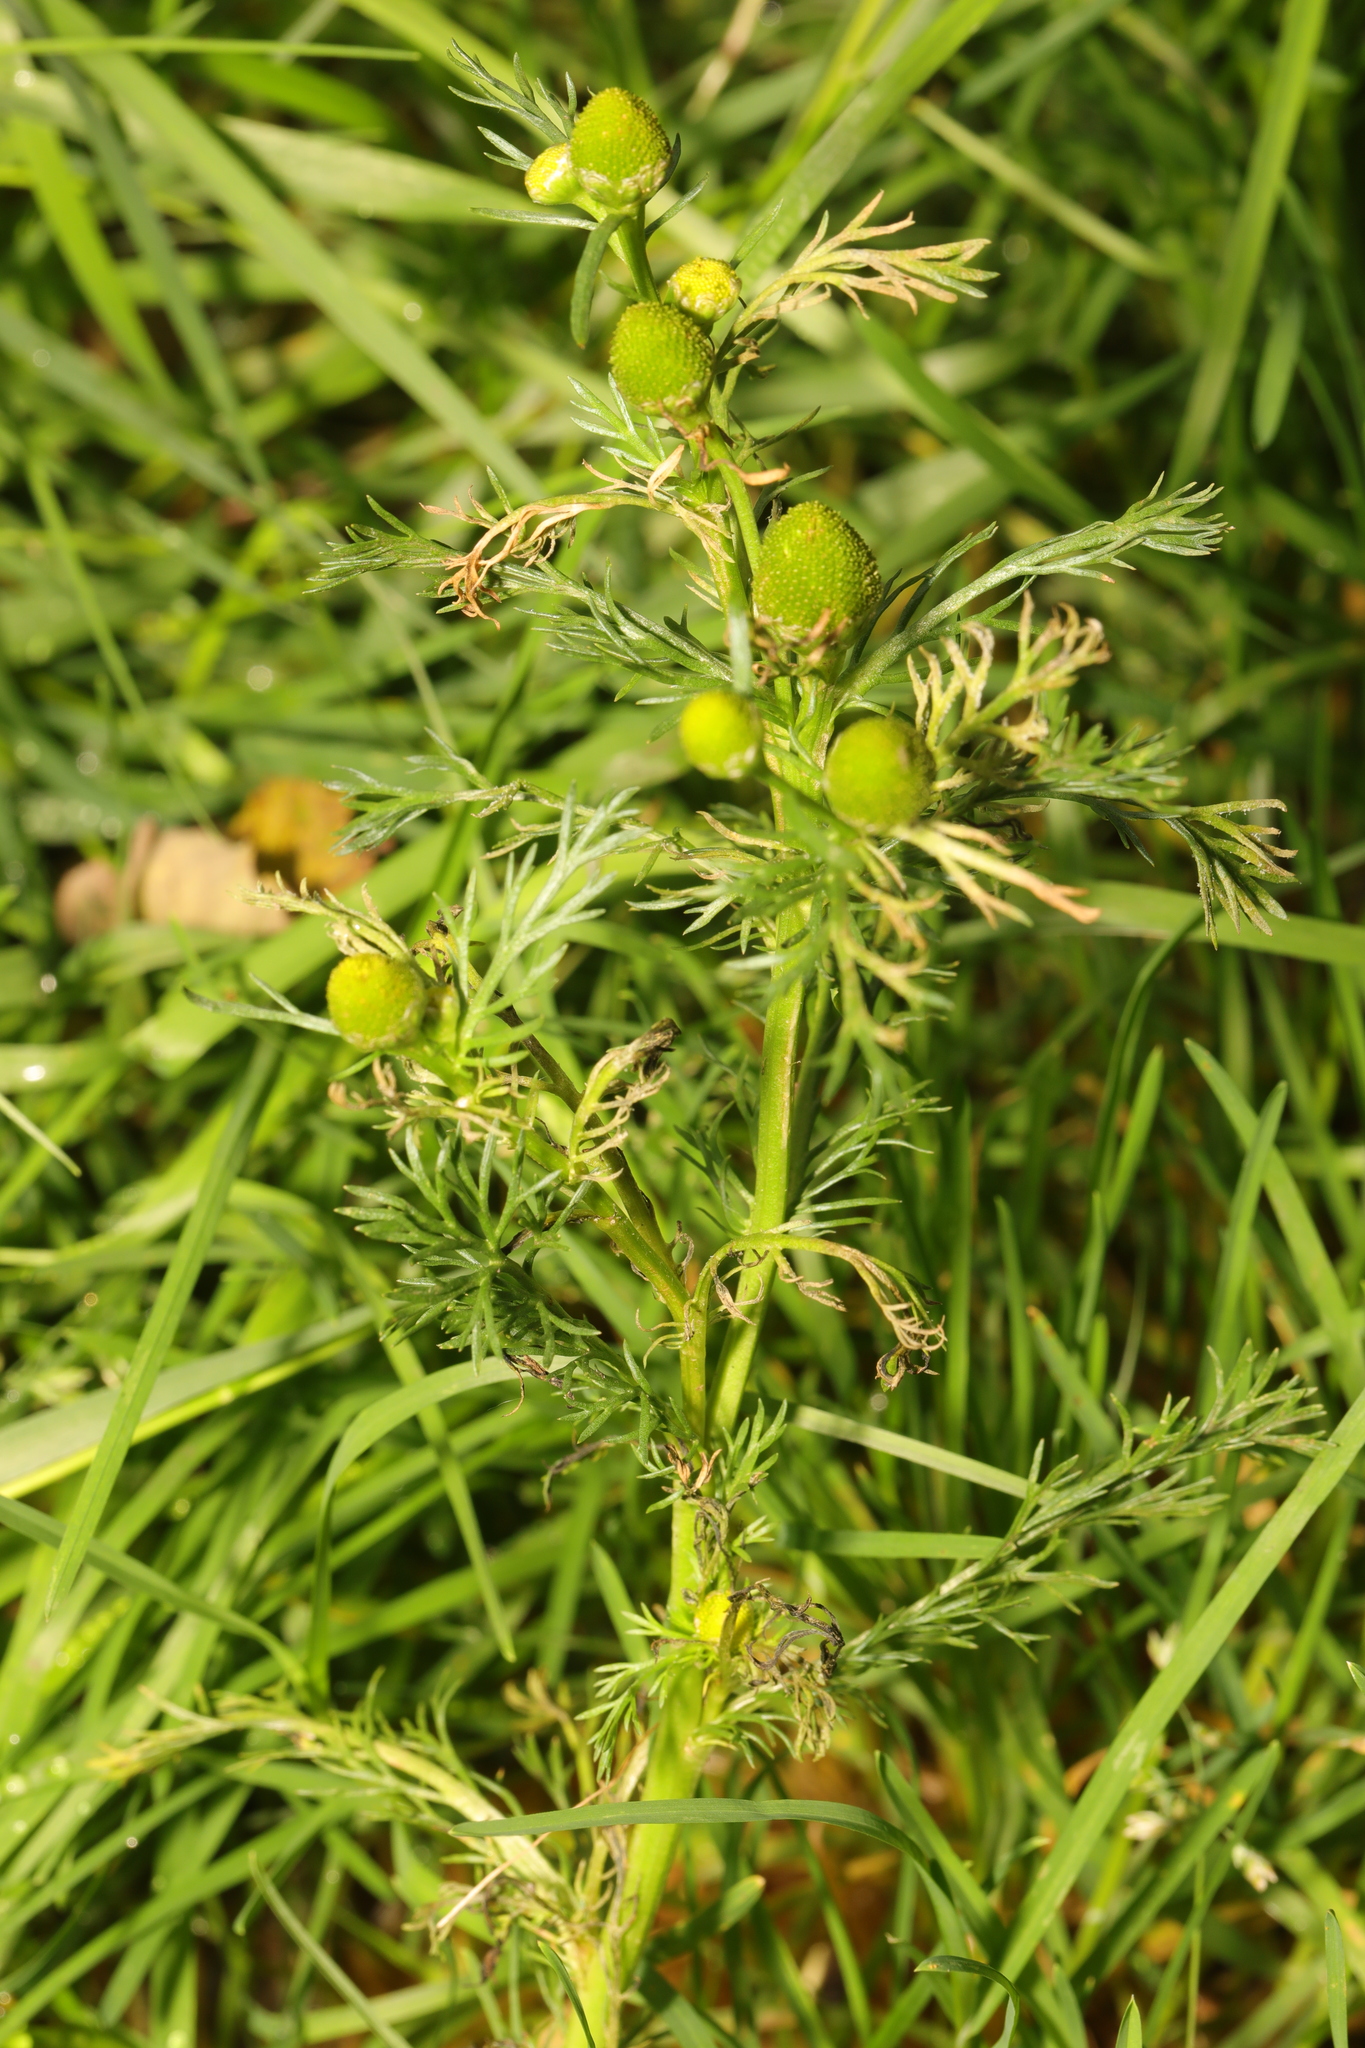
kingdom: Plantae
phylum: Tracheophyta
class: Magnoliopsida
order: Asterales
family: Asteraceae
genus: Matricaria
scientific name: Matricaria discoidea
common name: Disc mayweed
